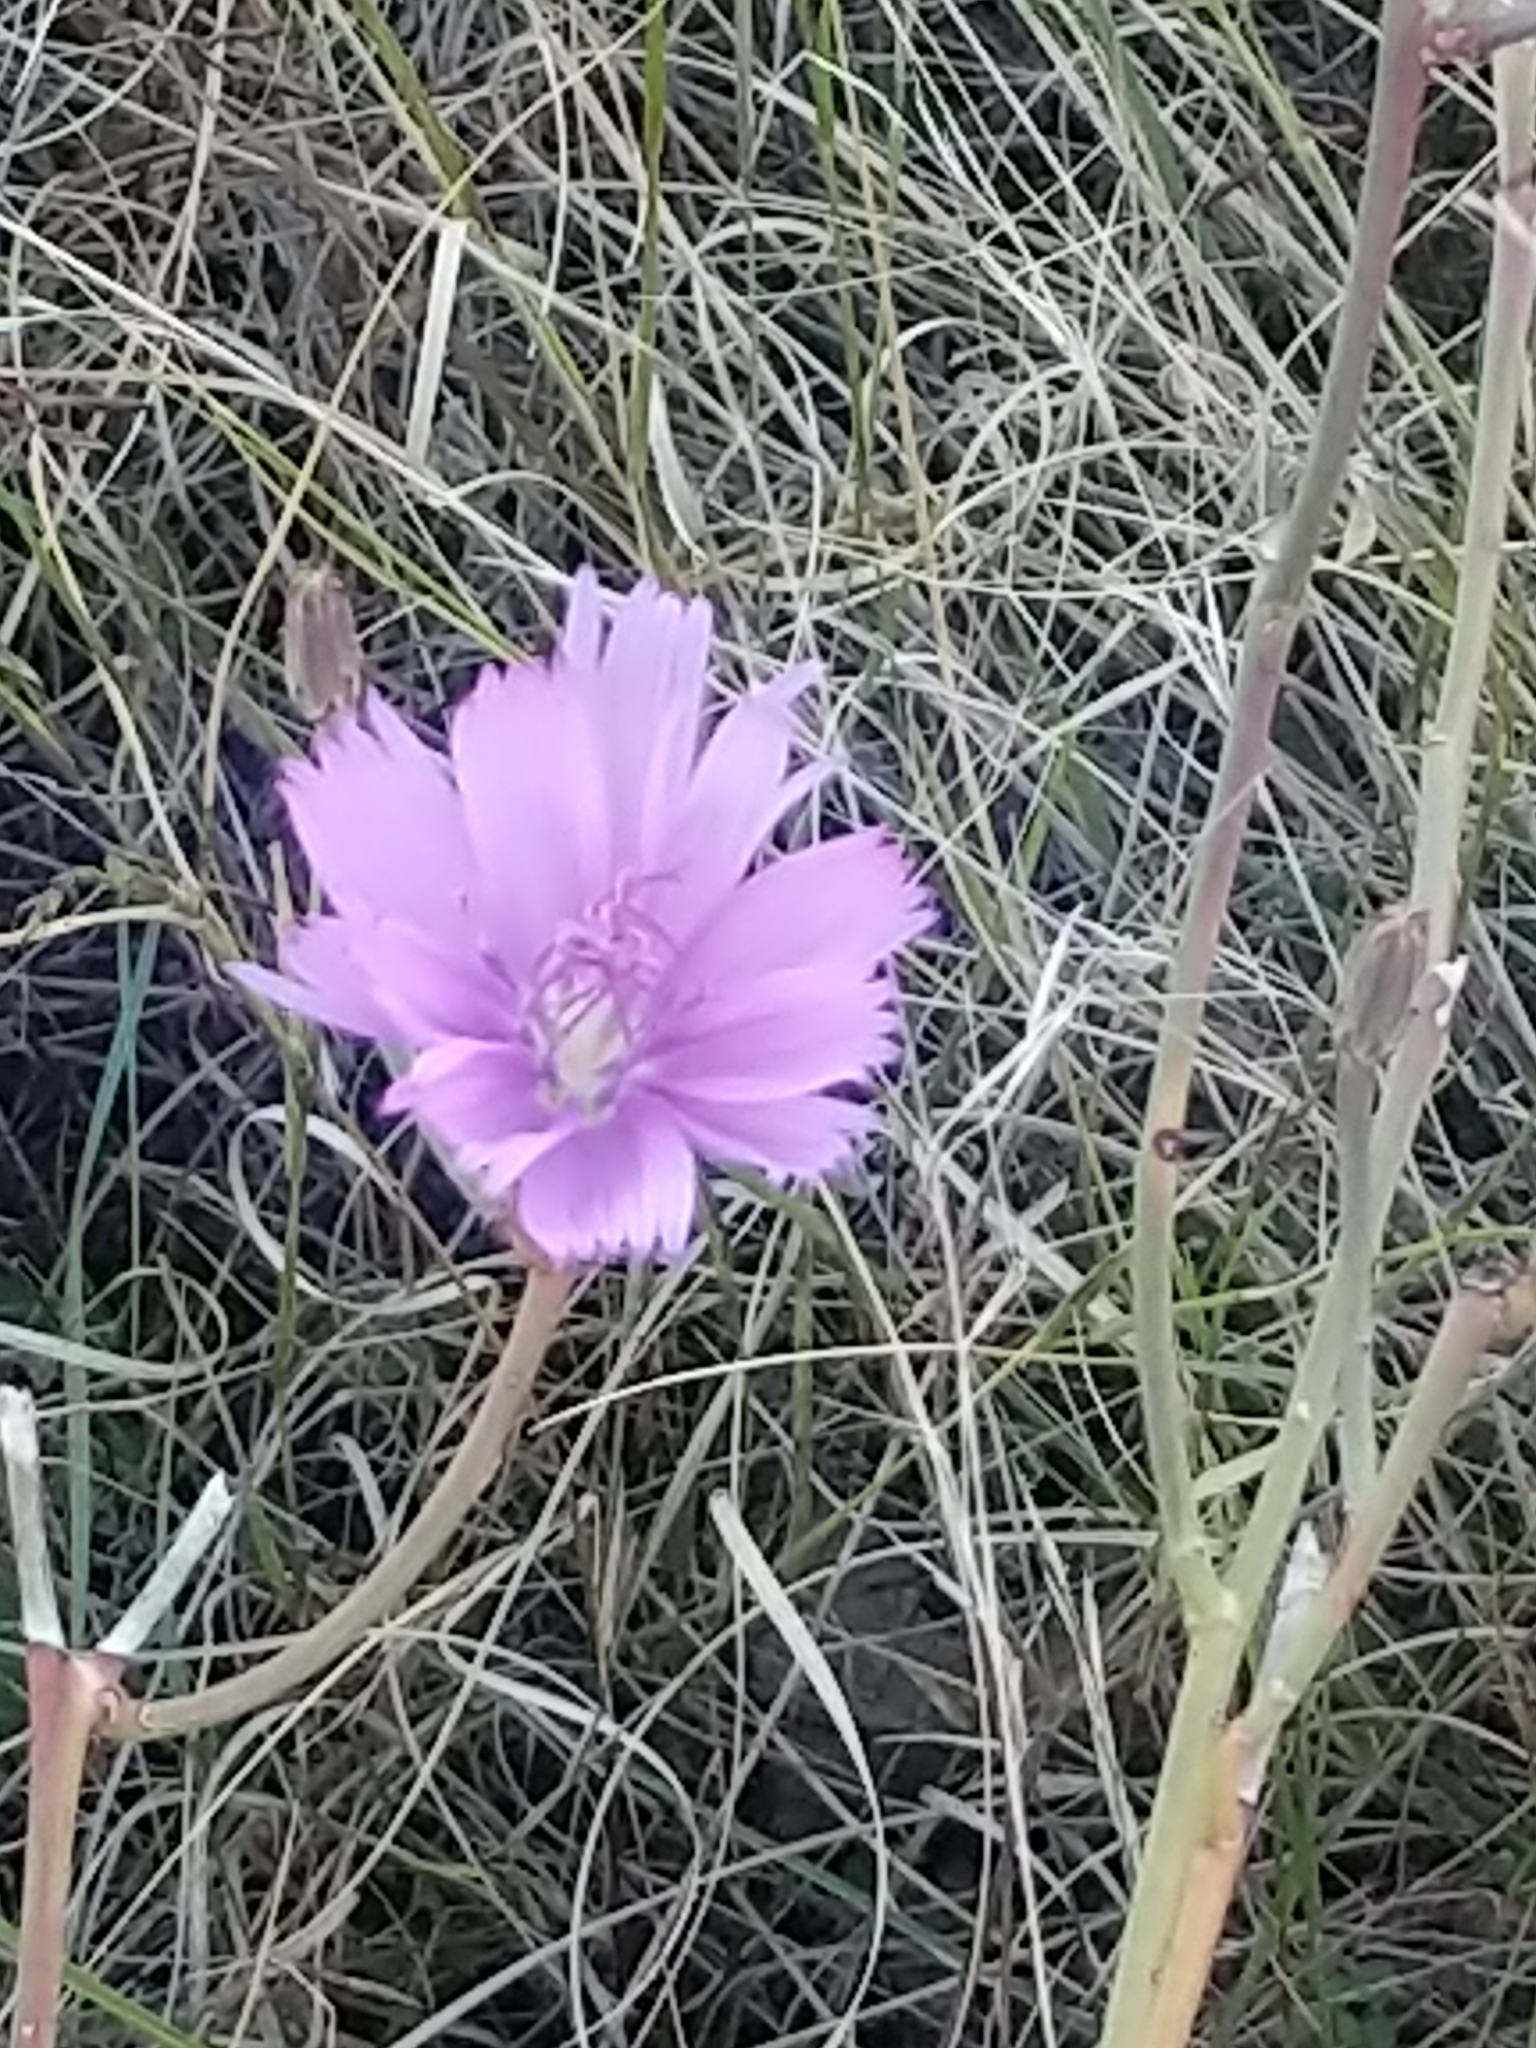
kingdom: Plantae
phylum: Tracheophyta
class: Magnoliopsida
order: Asterales
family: Asteraceae
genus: Lygodesmia
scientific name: Lygodesmia texana
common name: Texas skeleton-plant
